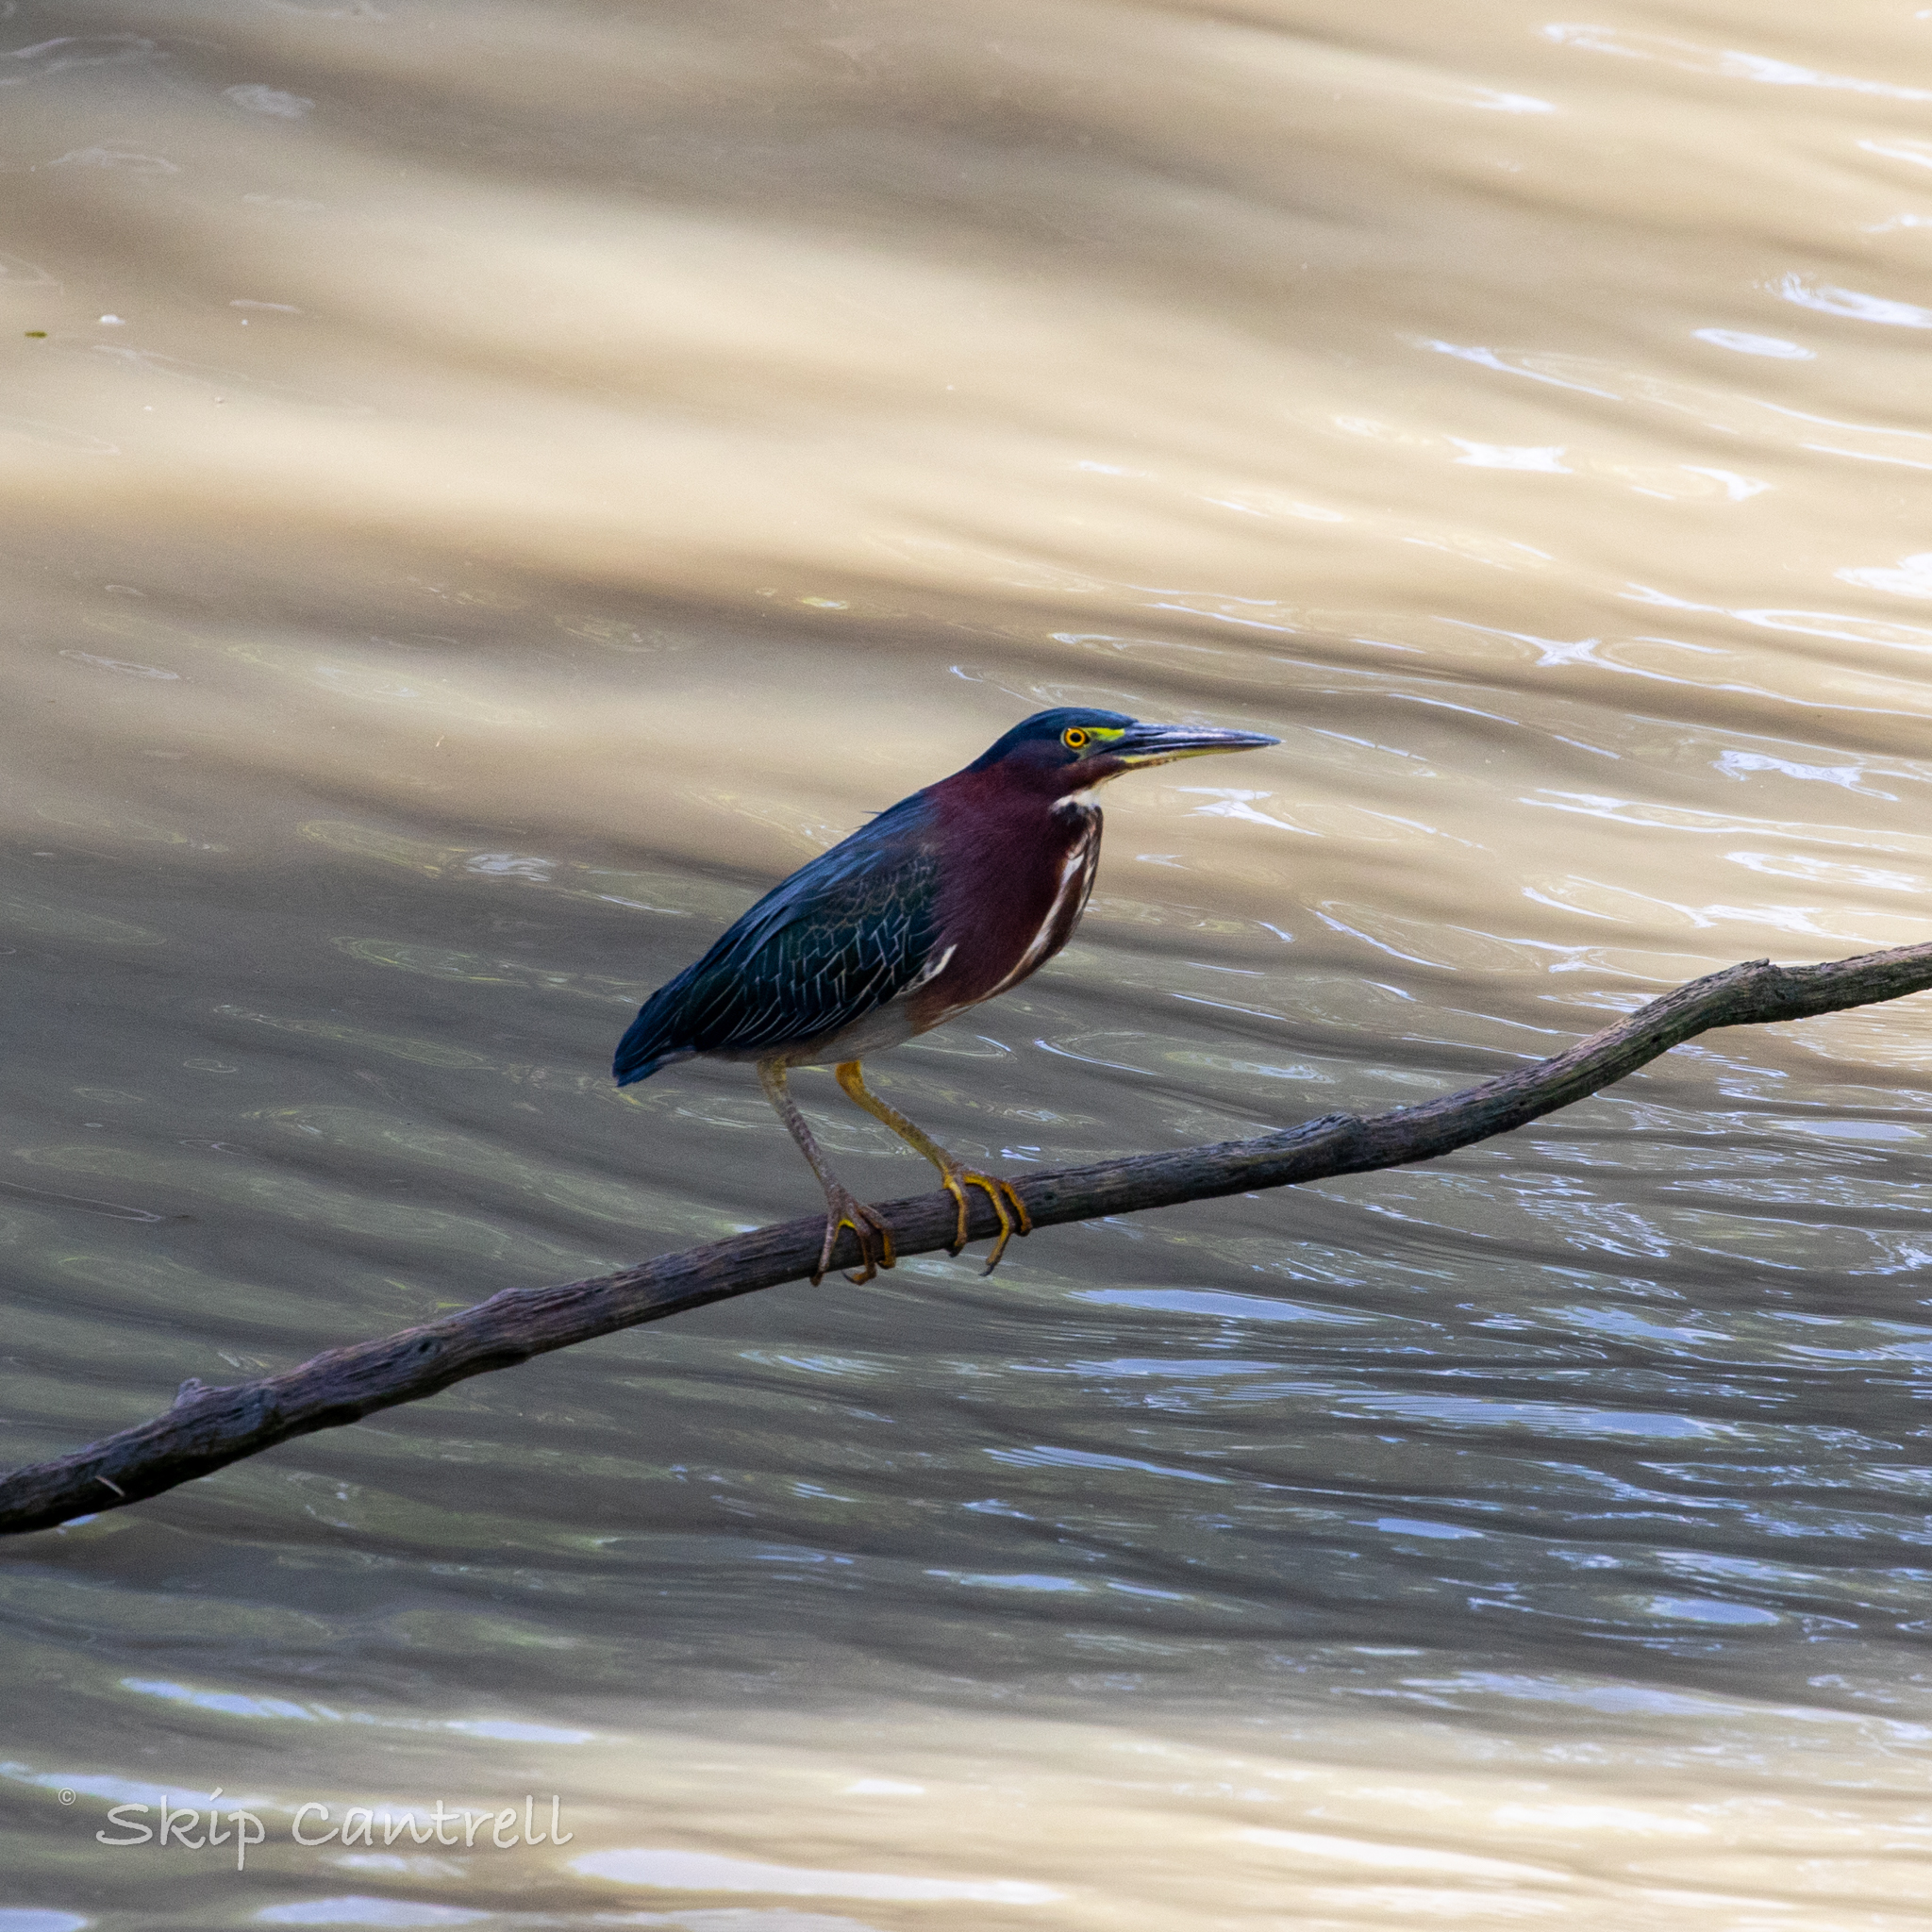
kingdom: Animalia
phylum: Chordata
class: Aves
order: Pelecaniformes
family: Ardeidae
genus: Butorides
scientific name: Butorides virescens
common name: Green heron
